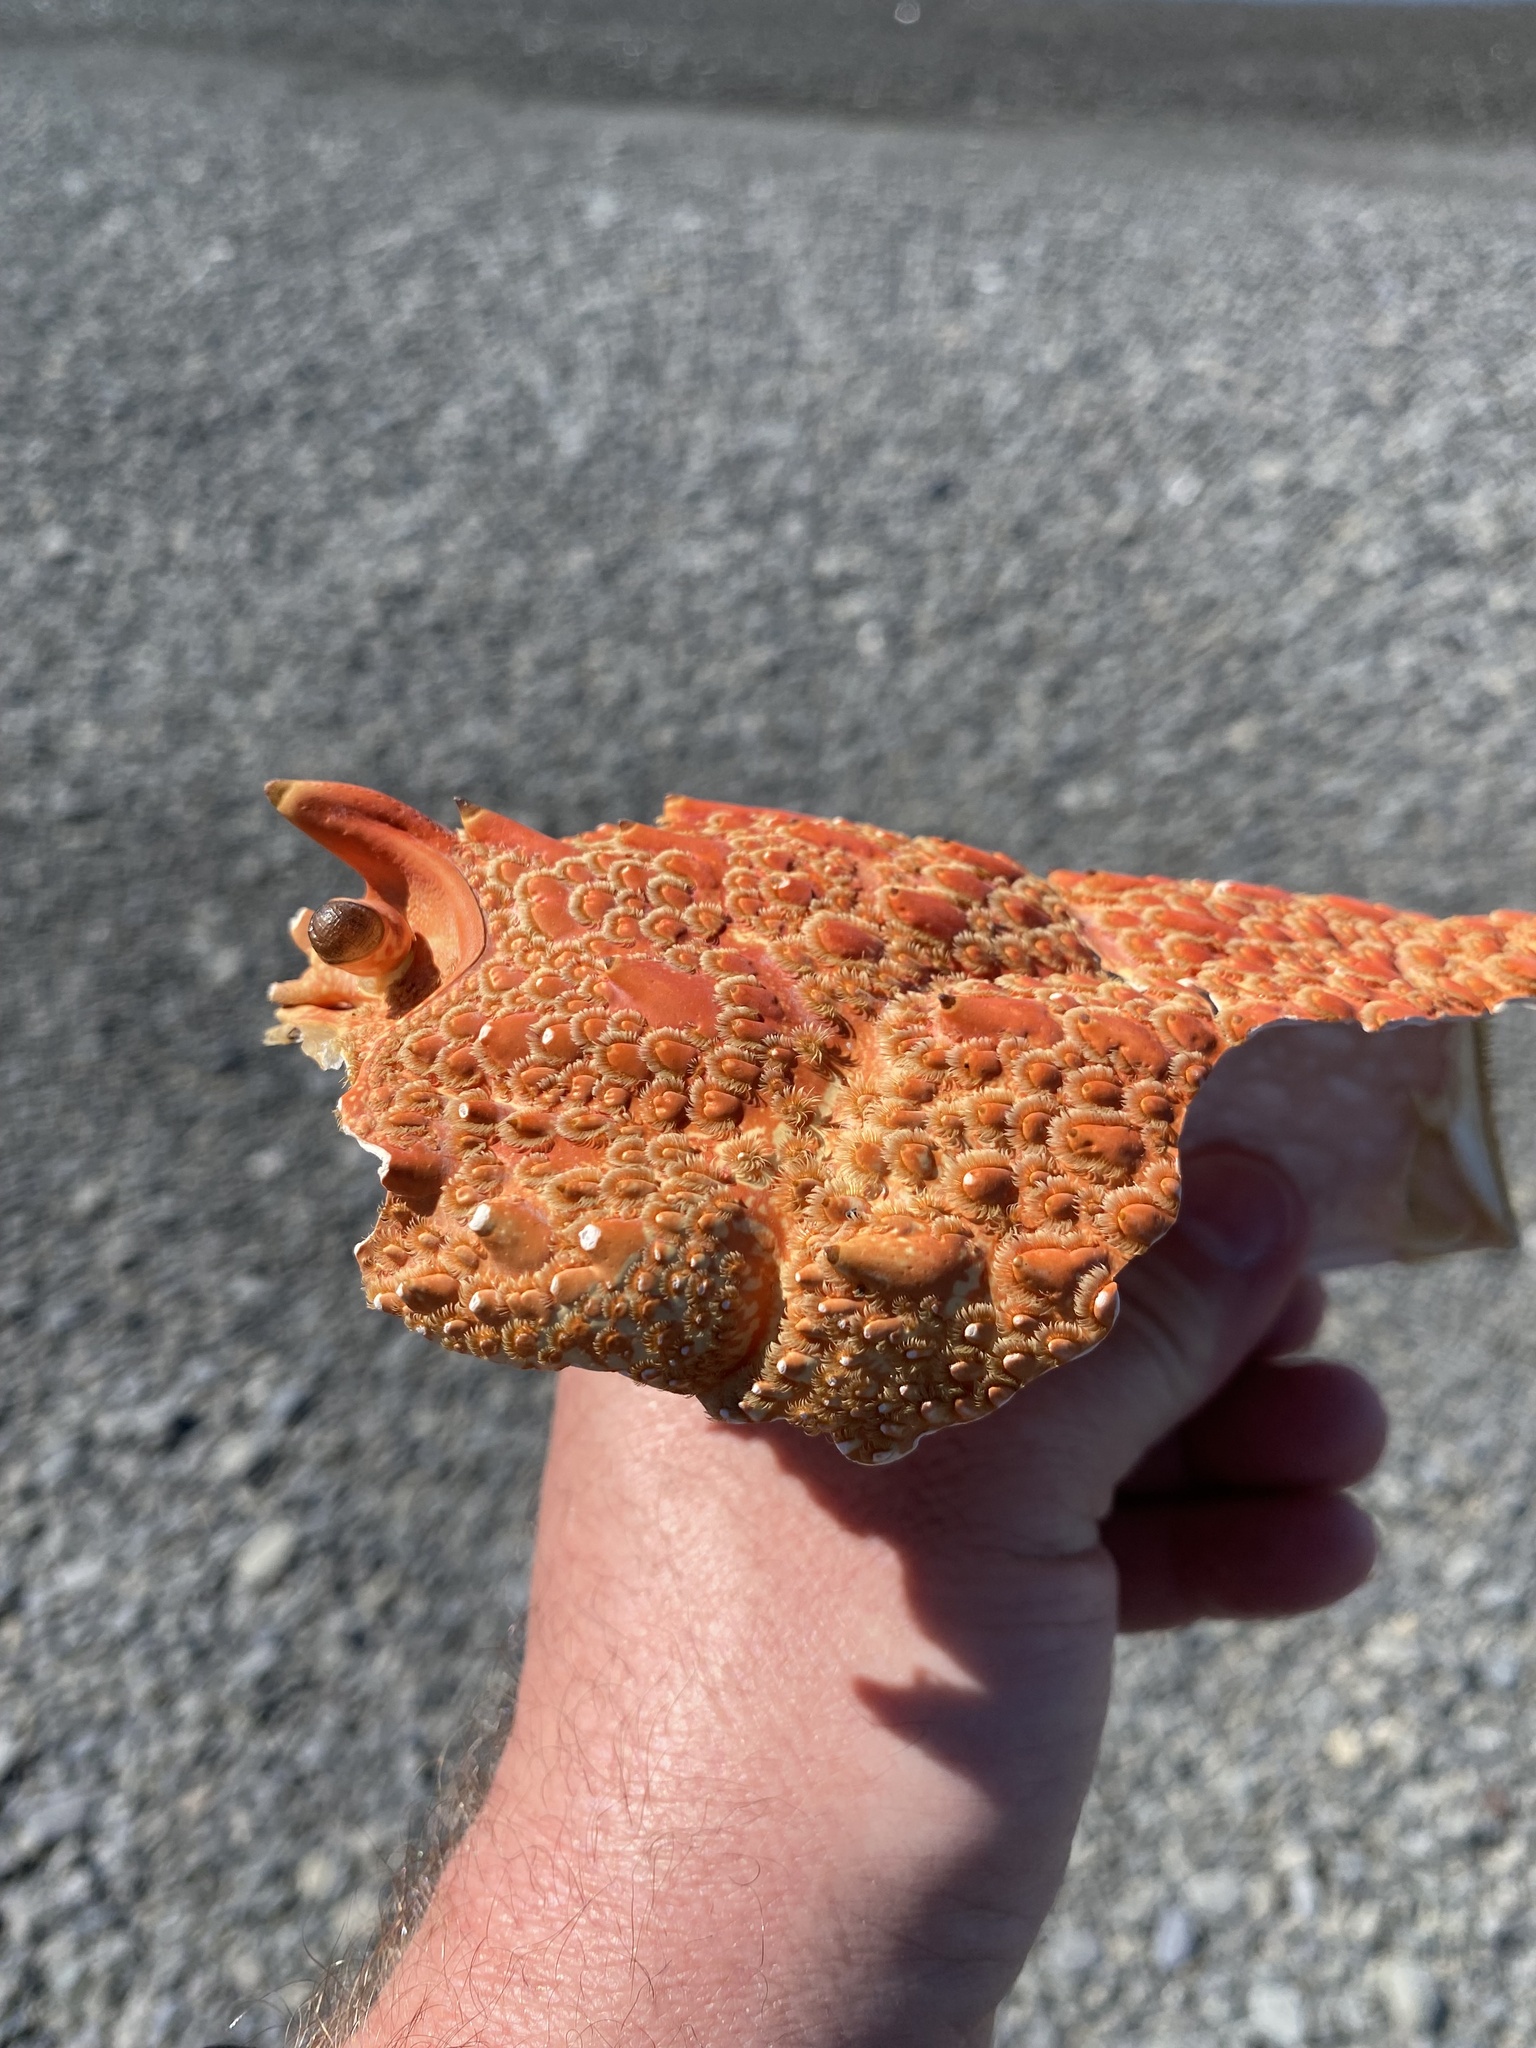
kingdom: Animalia
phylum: Arthropoda
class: Malacostraca
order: Decapoda
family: Palinuridae
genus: Jasus
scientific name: Jasus edwardsii
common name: Red rock lobster
